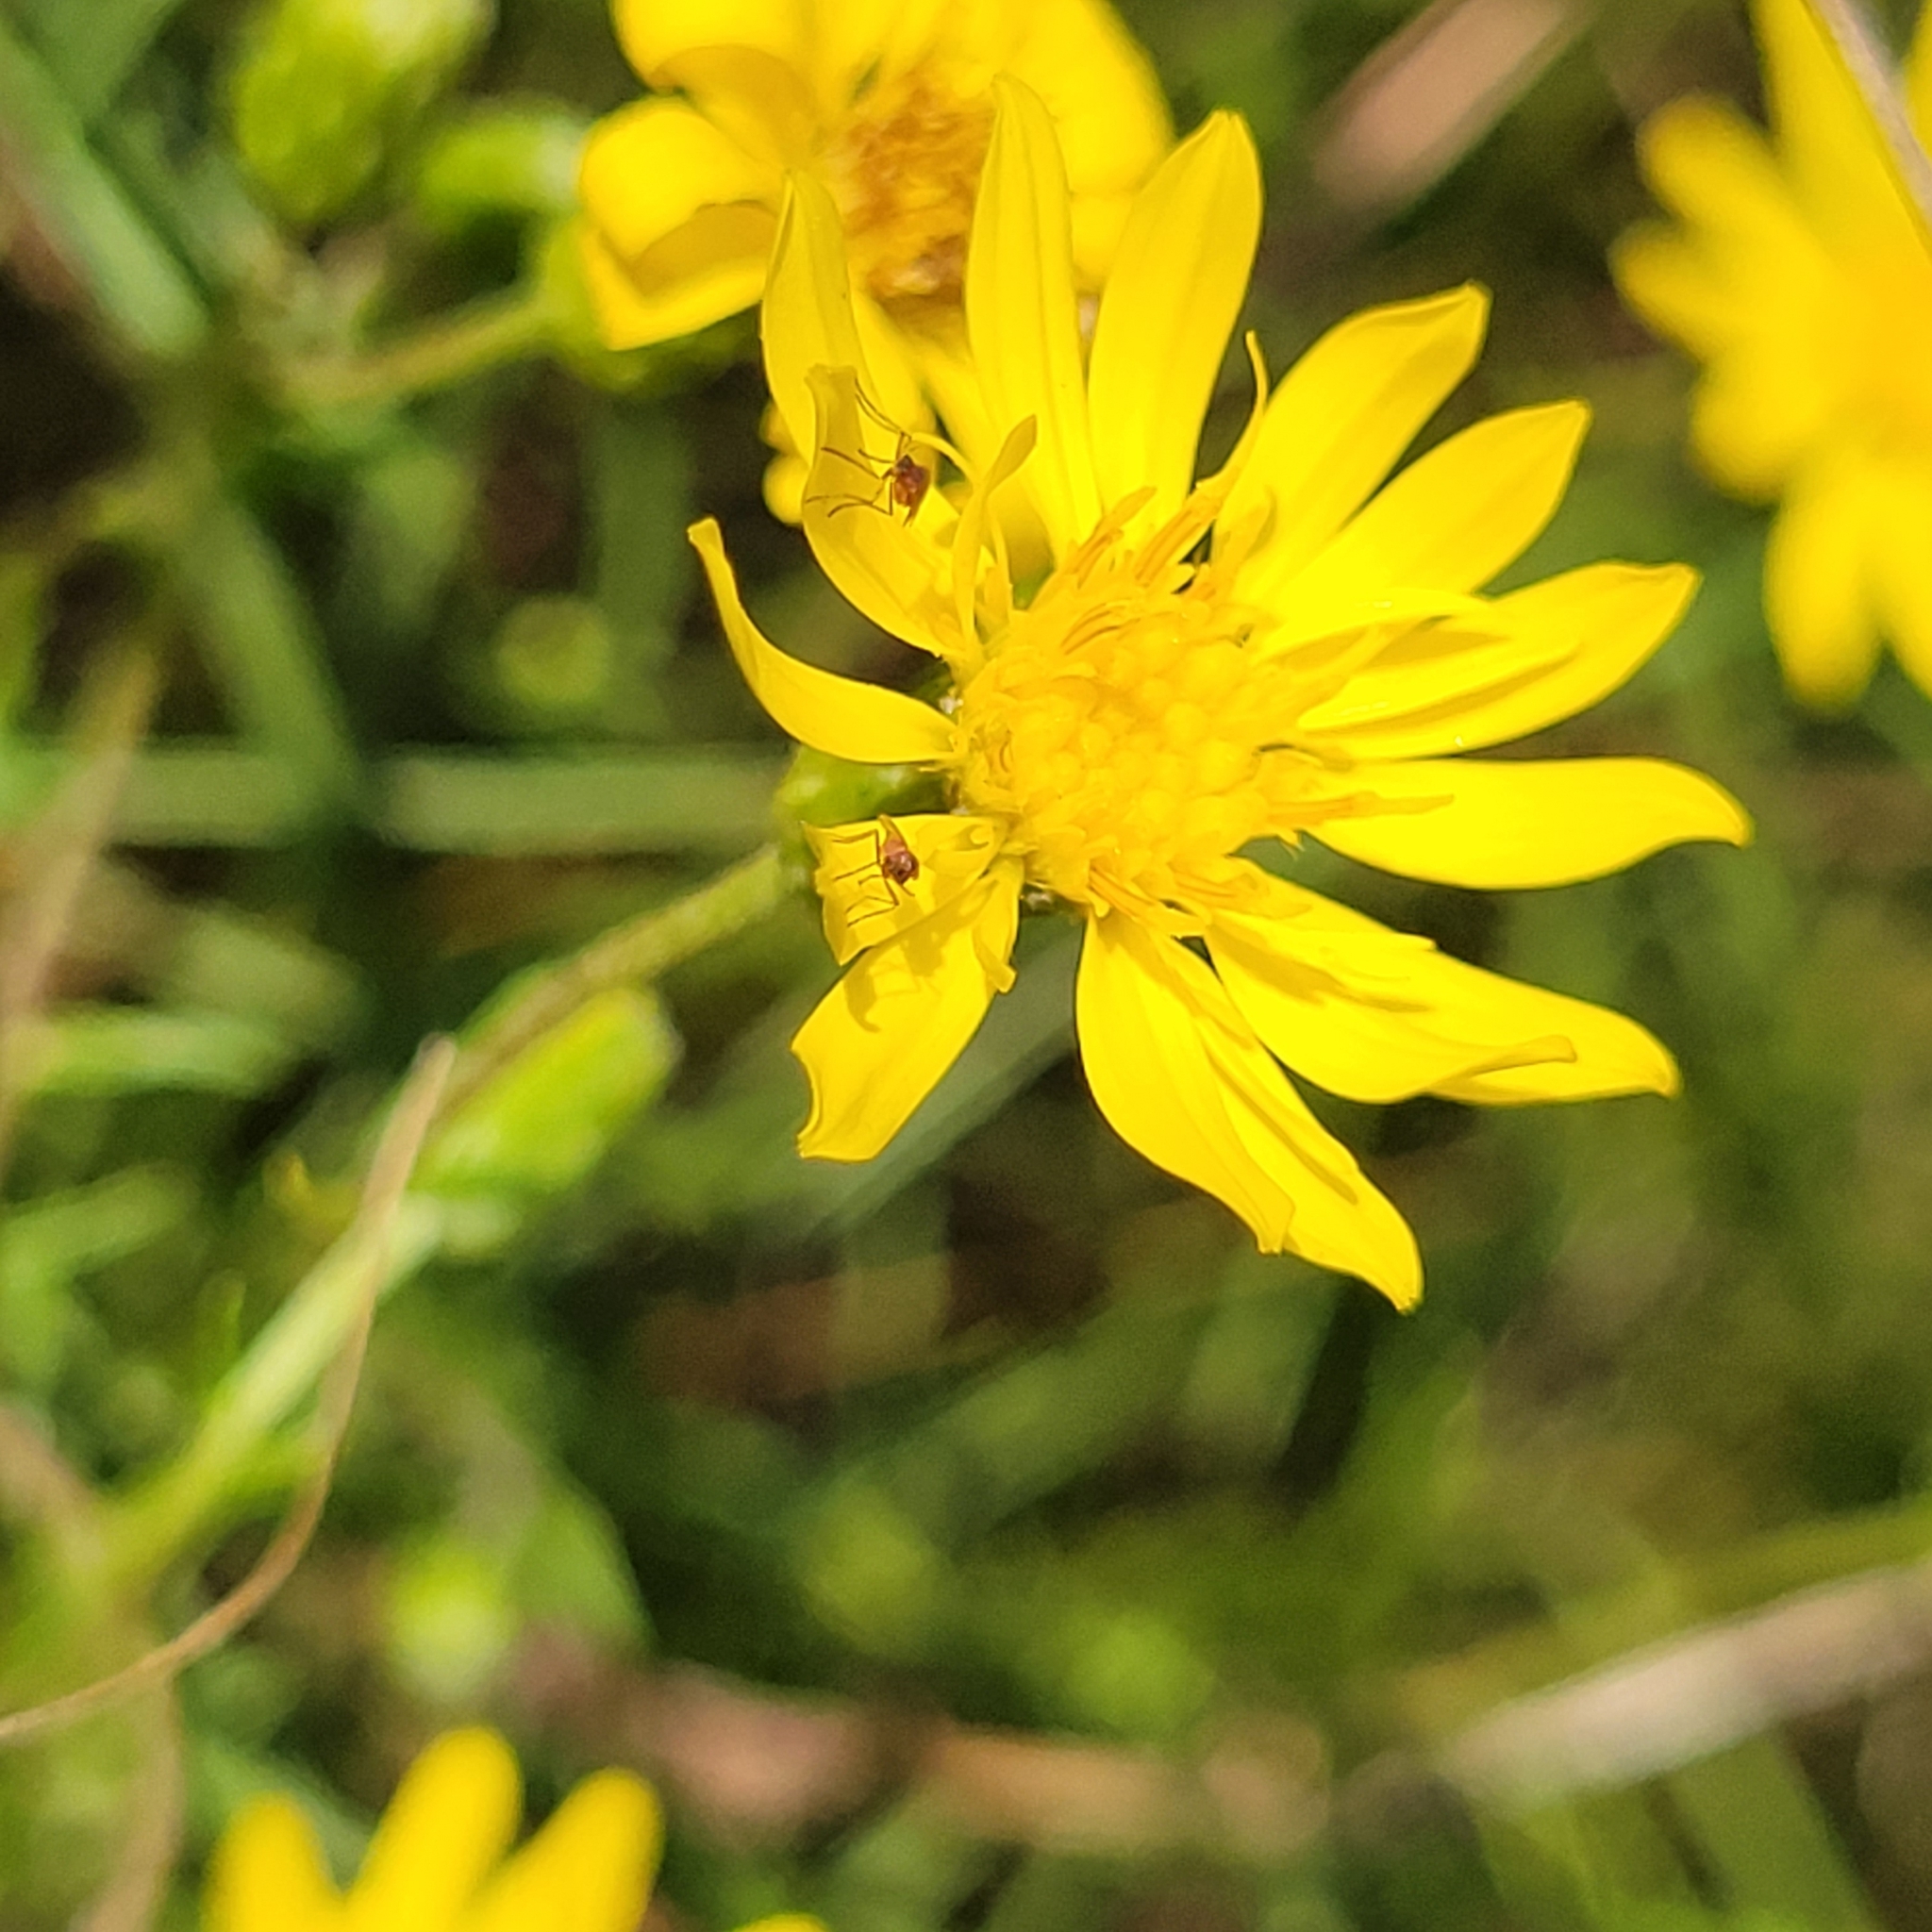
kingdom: Plantae
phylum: Tracheophyta
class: Magnoliopsida
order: Asterales
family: Asteraceae
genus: Pityopsis
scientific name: Pityopsis falcata
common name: Sickle-leaved goldenaster
